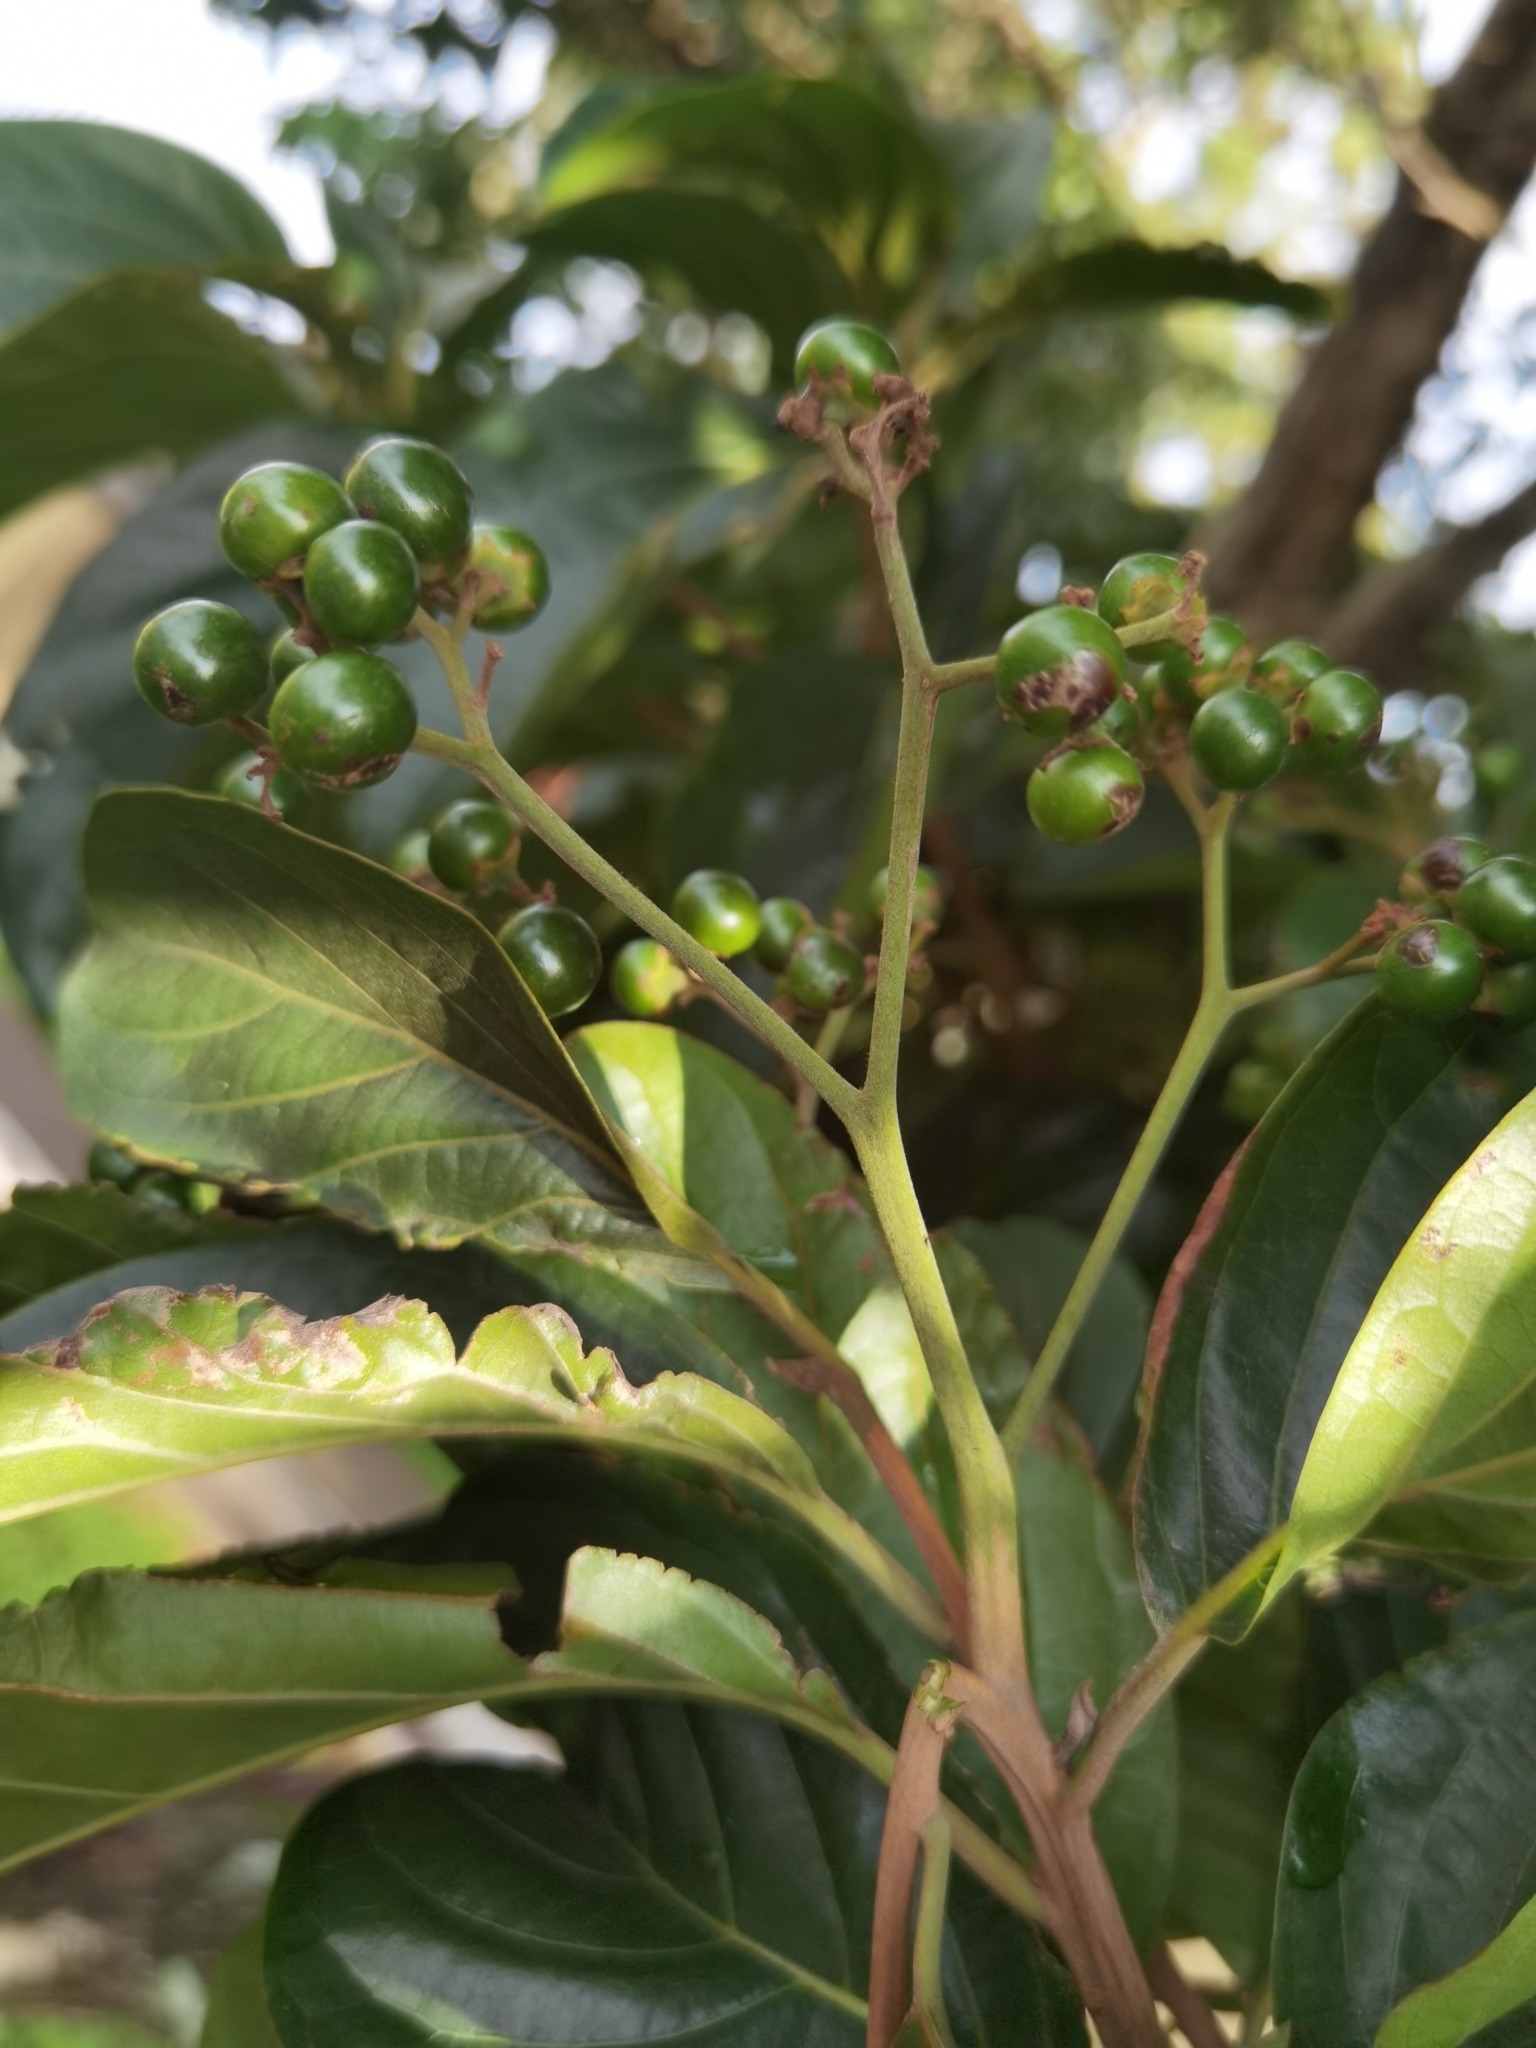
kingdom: Plantae
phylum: Tracheophyta
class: Magnoliopsida
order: Boraginales
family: Cordiaceae
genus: Cordia
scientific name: Cordia eriostigma
